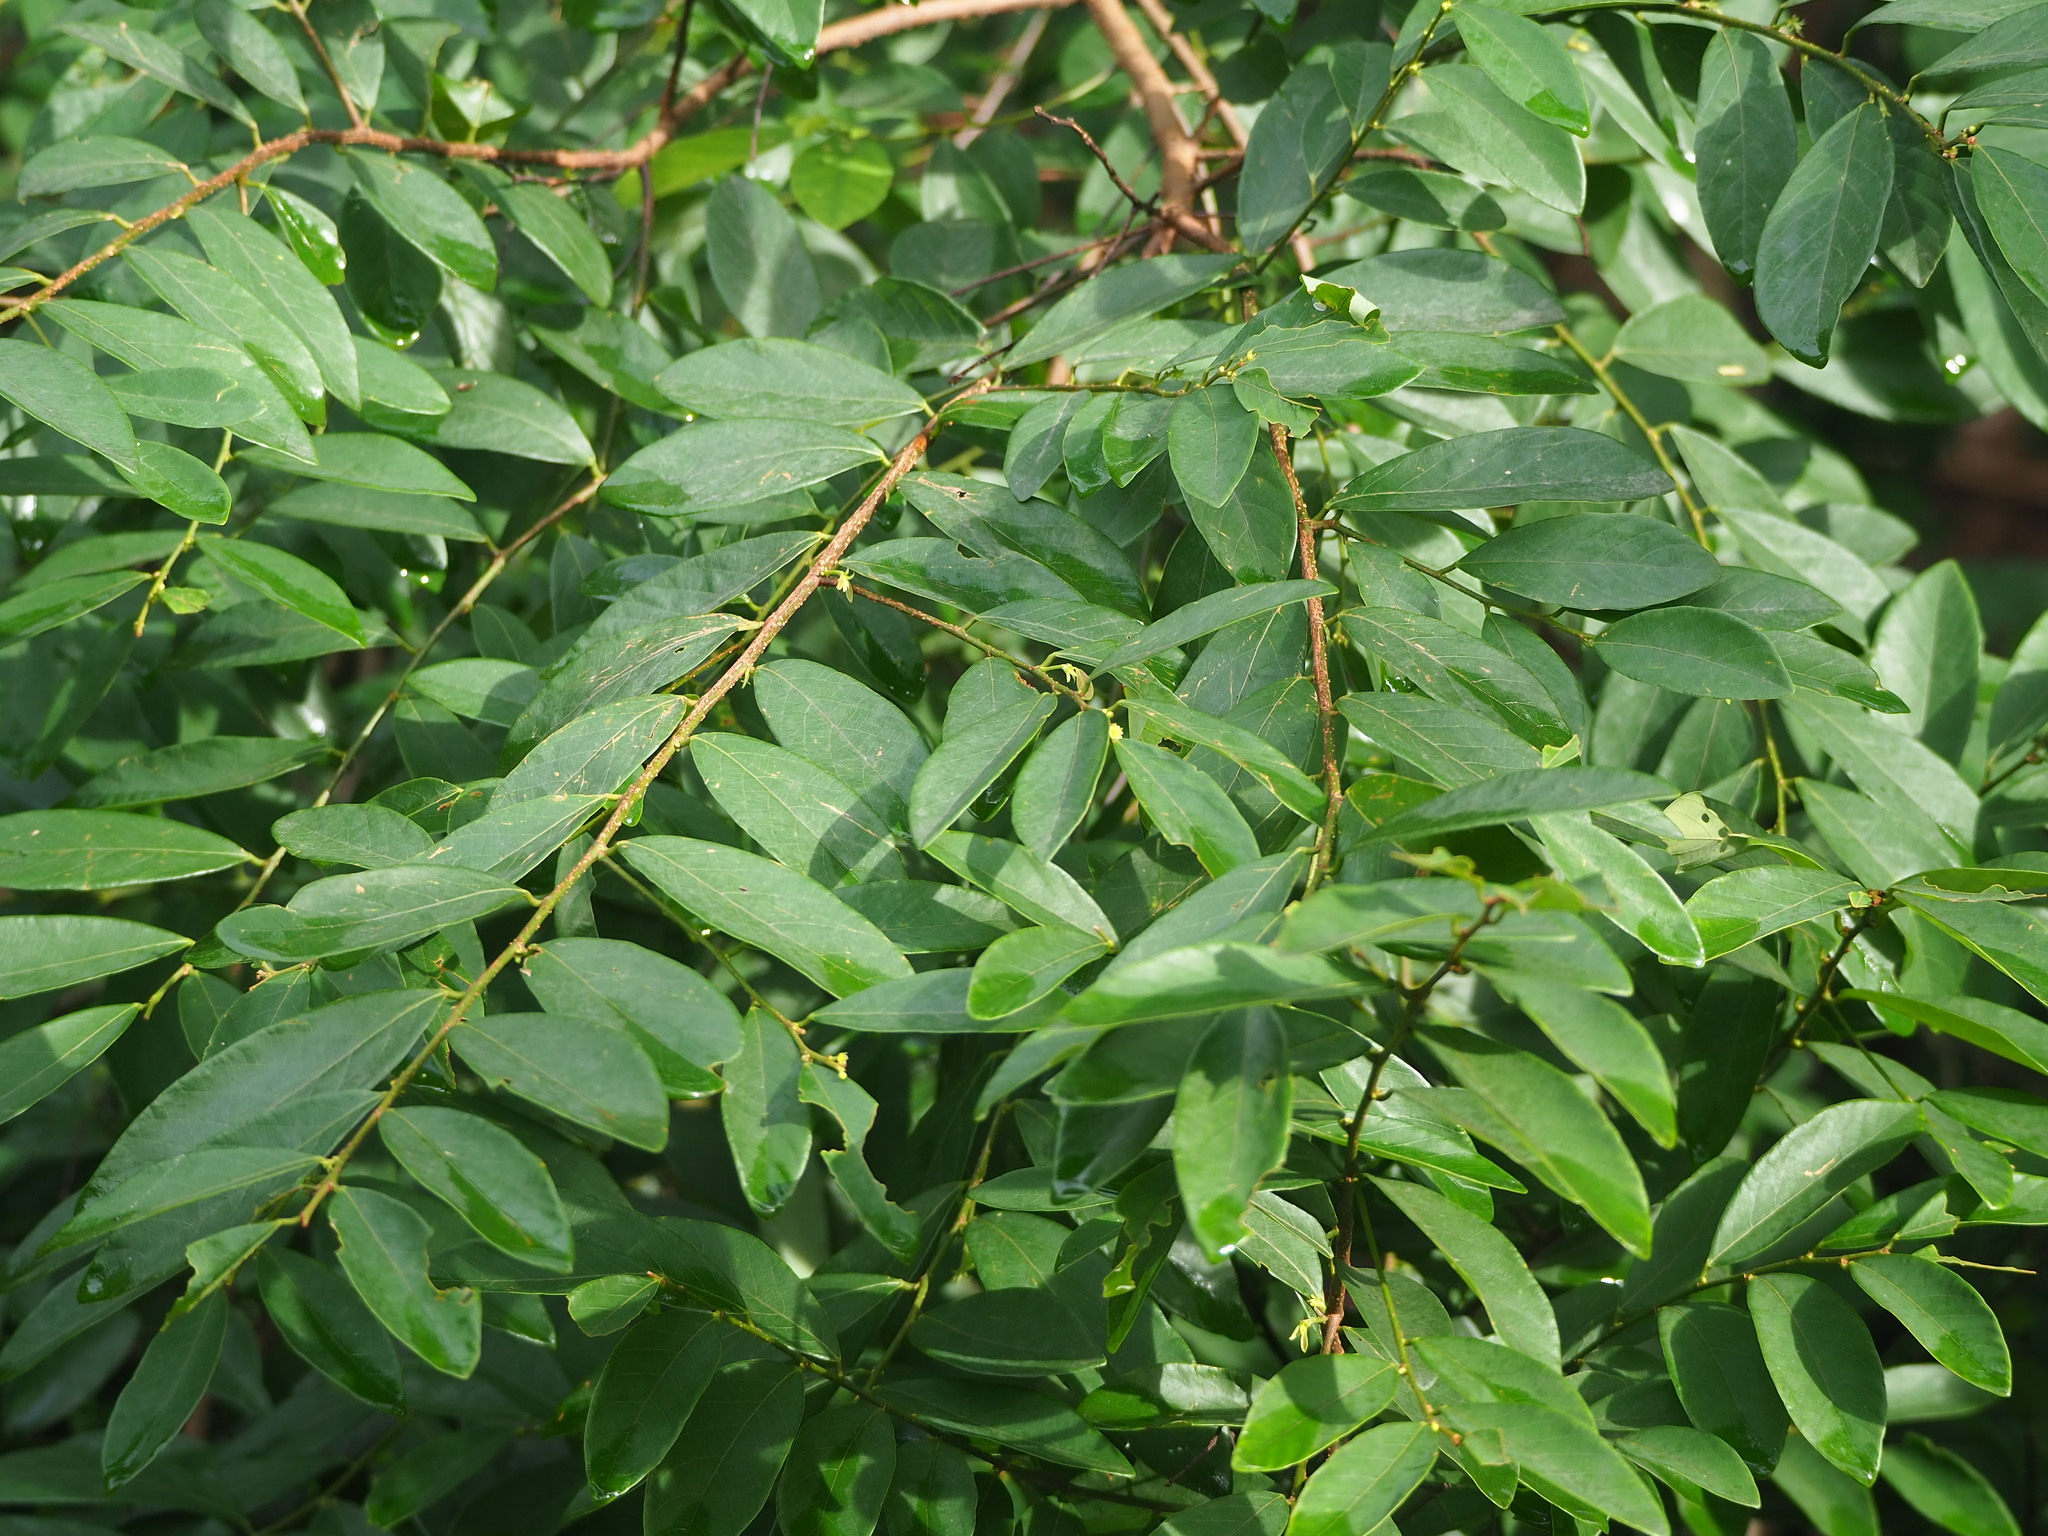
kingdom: Plantae
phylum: Tracheophyta
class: Magnoliopsida
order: Malpighiales
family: Phyllanthaceae
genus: Bridelia
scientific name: Bridelia tomentosa
